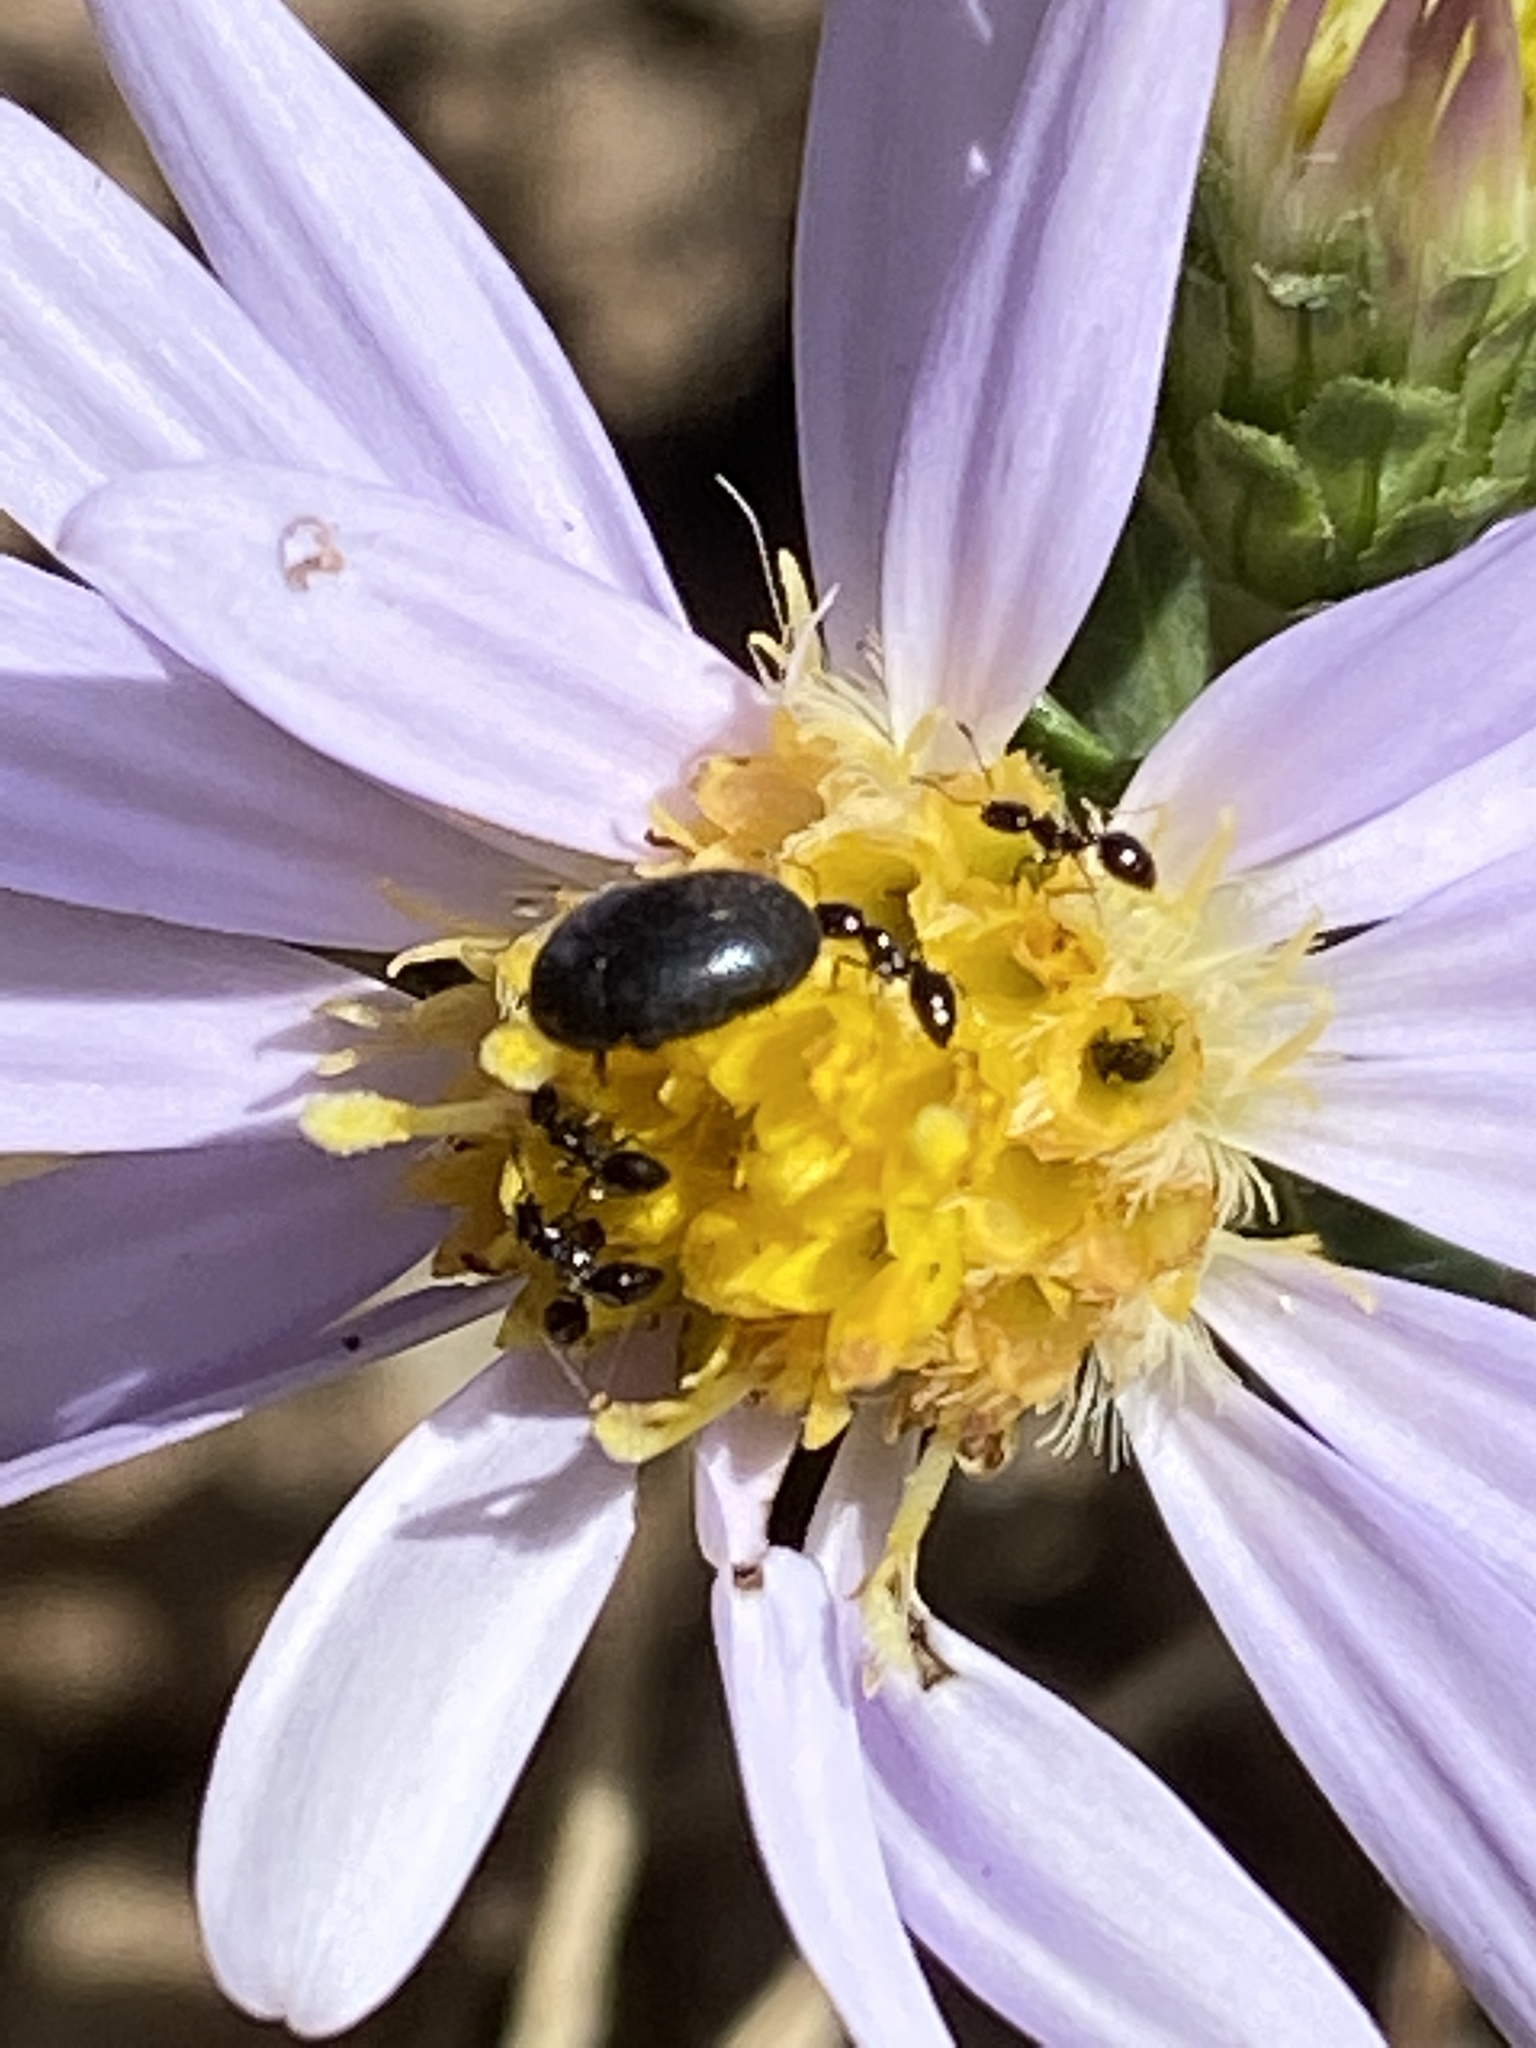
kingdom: Plantae
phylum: Tracheophyta
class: Magnoliopsida
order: Asterales
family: Asteraceae
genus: Symphyotrichum
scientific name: Symphyotrichum chilense
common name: Pacific aster
